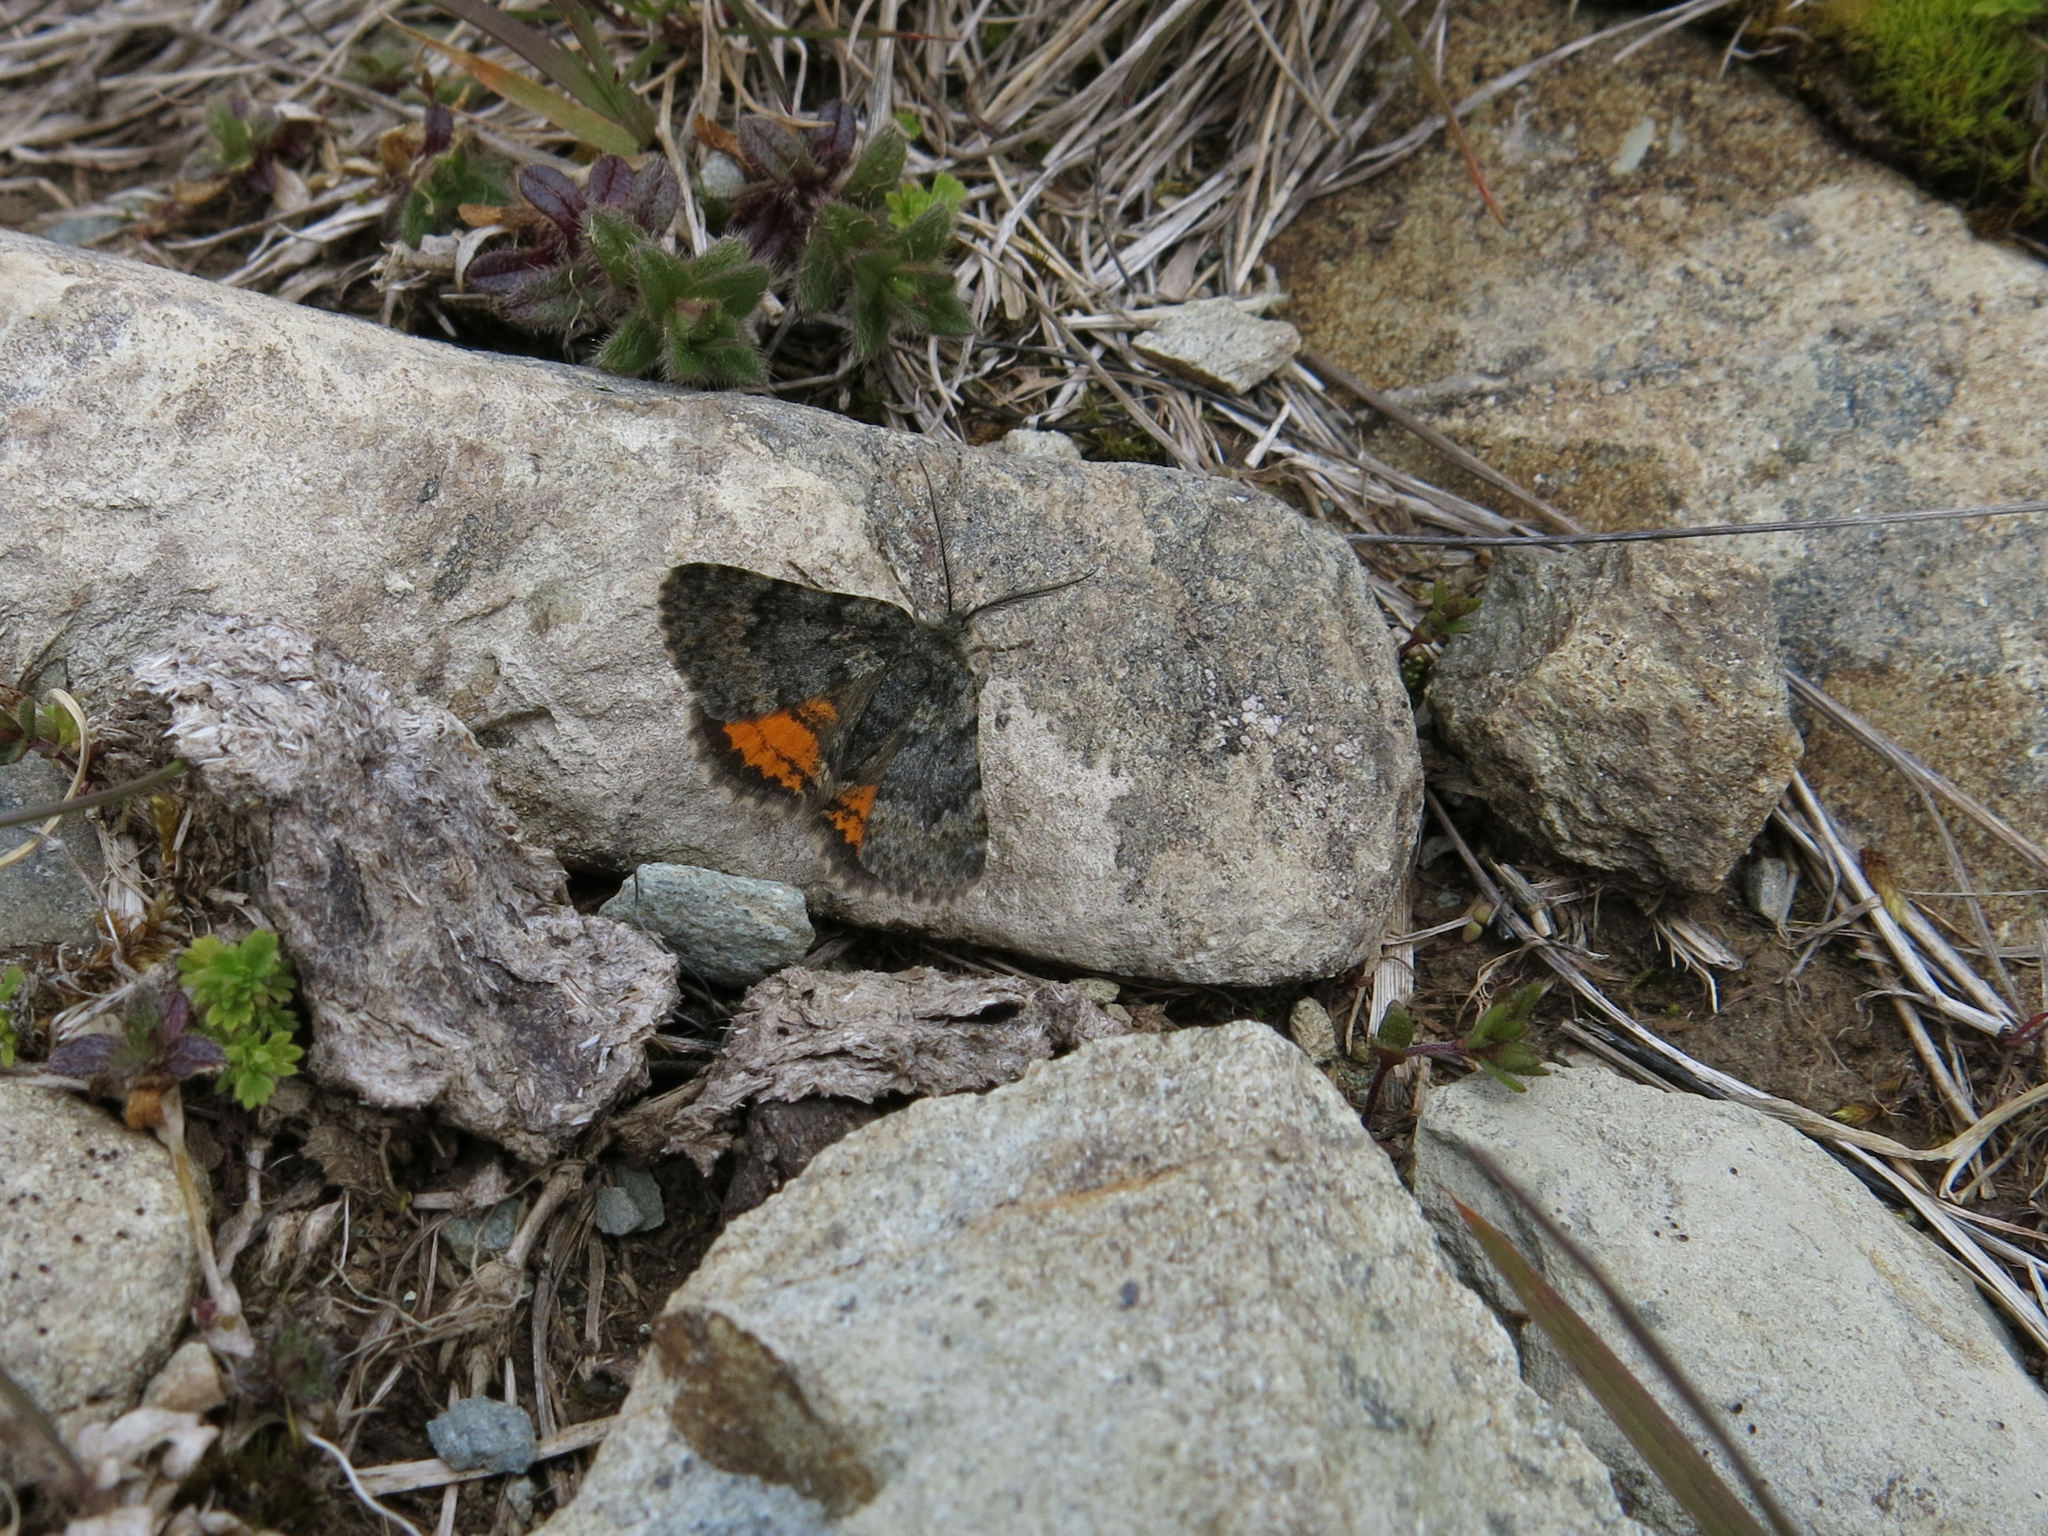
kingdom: Animalia
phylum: Arthropoda
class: Insecta
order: Lepidoptera
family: Geometridae
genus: Paranotoreas
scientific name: Paranotoreas brephosata
